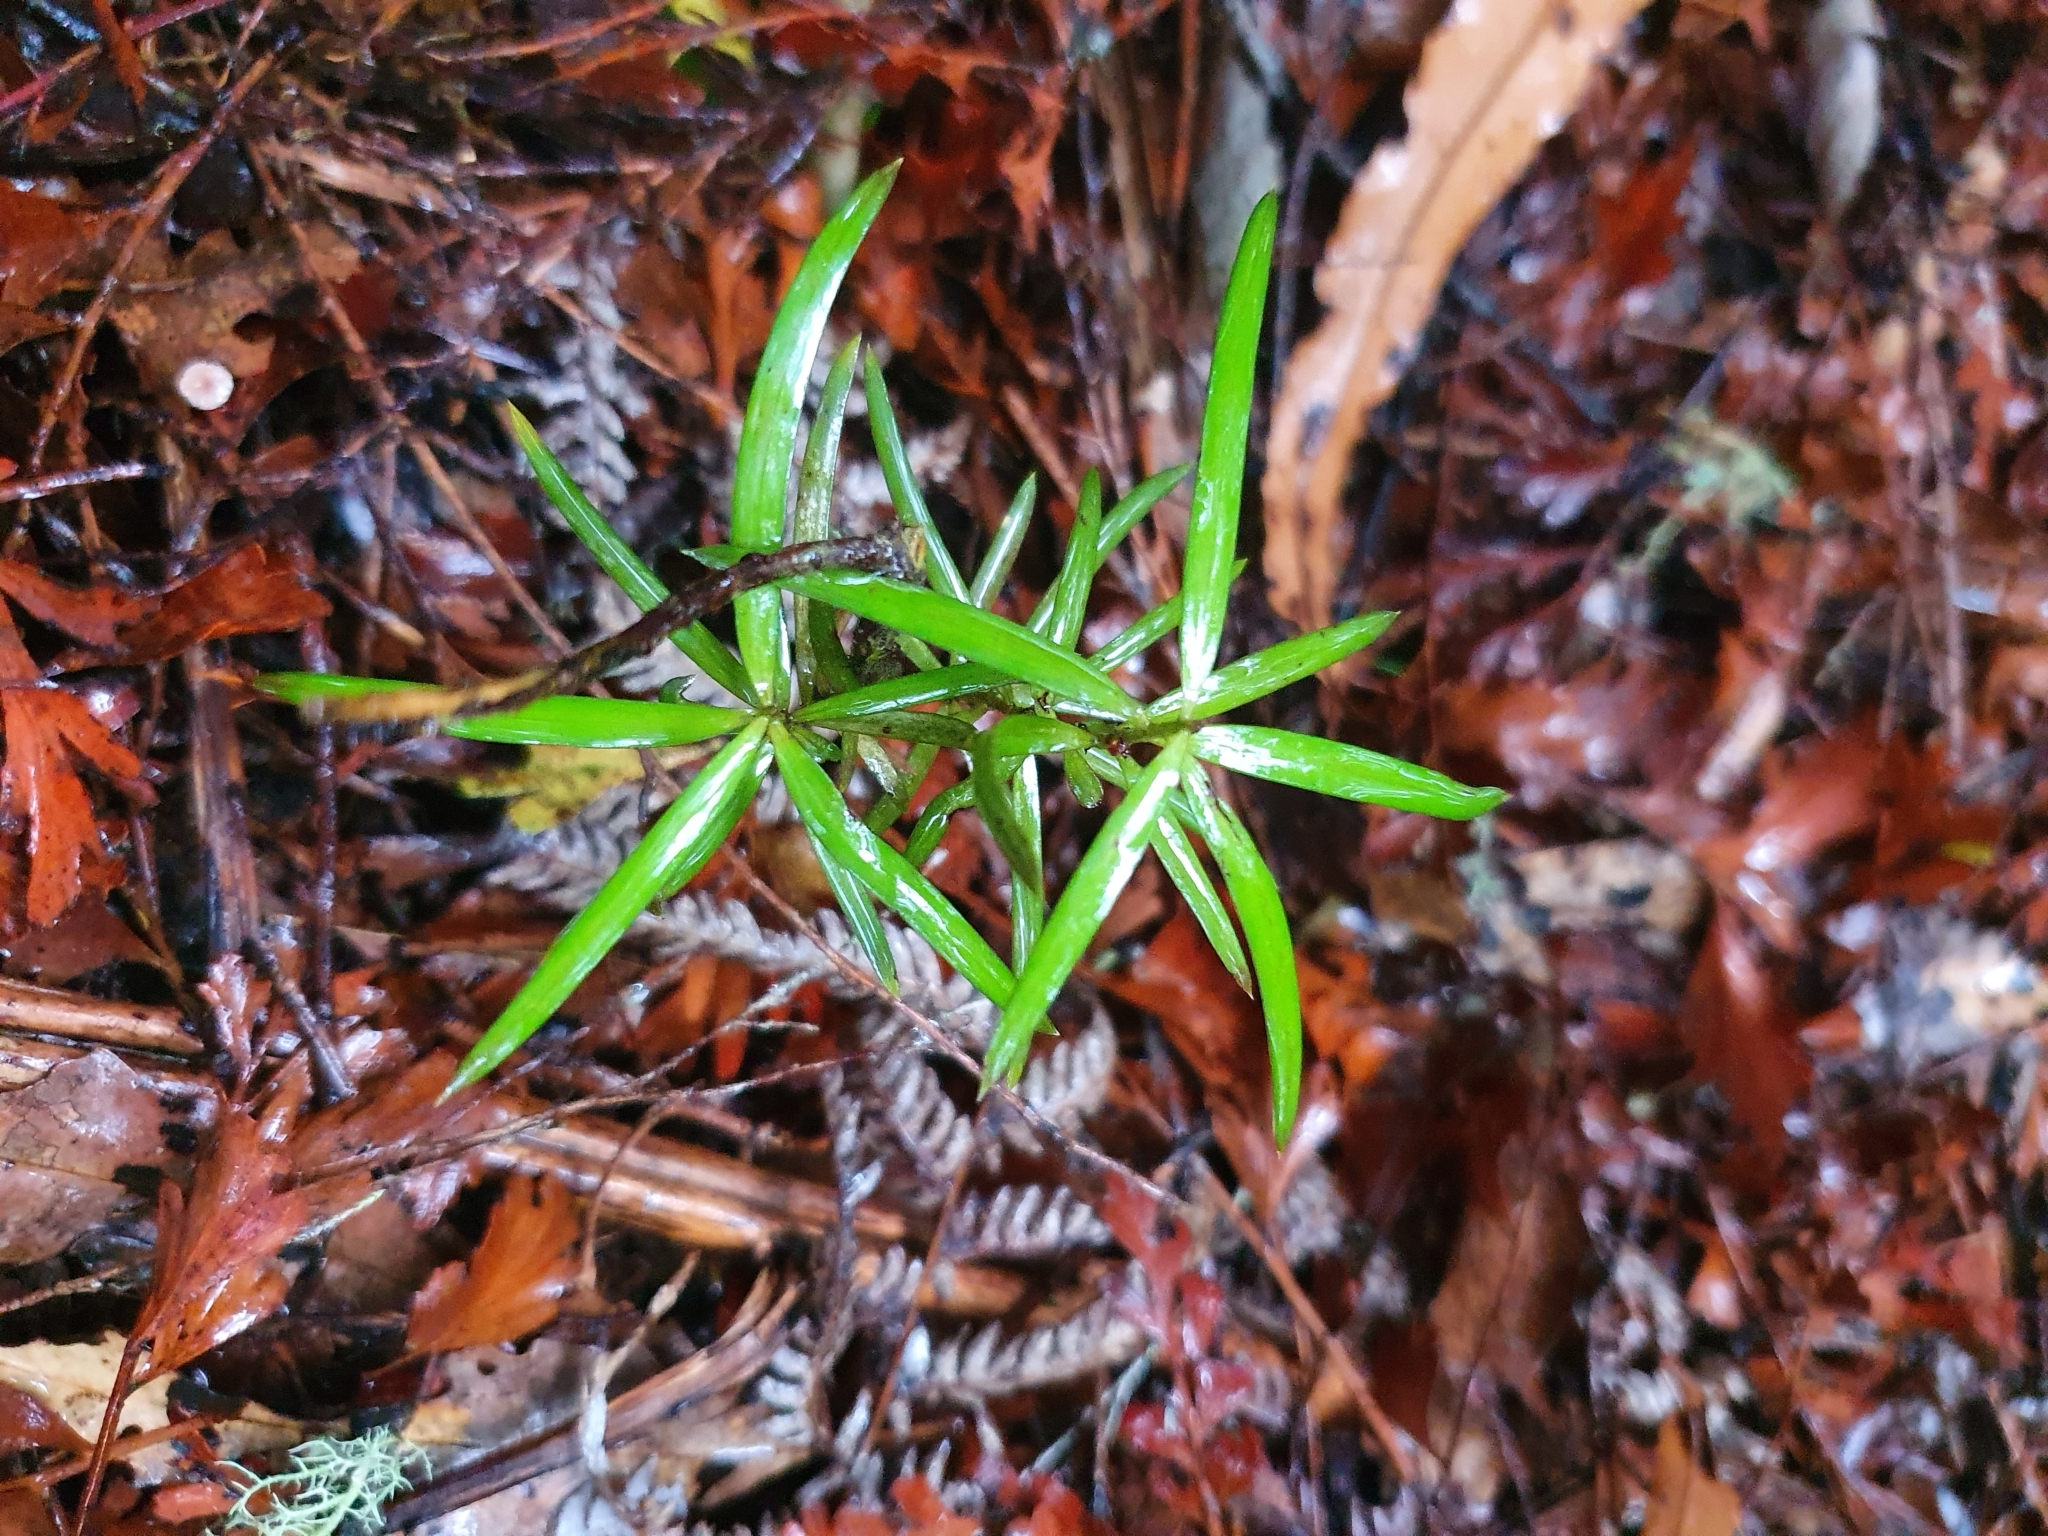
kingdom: Plantae
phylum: Tracheophyta
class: Pinopsida
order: Pinales
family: Podocarpaceae
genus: Podocarpus
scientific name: Podocarpus totara
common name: Totara
